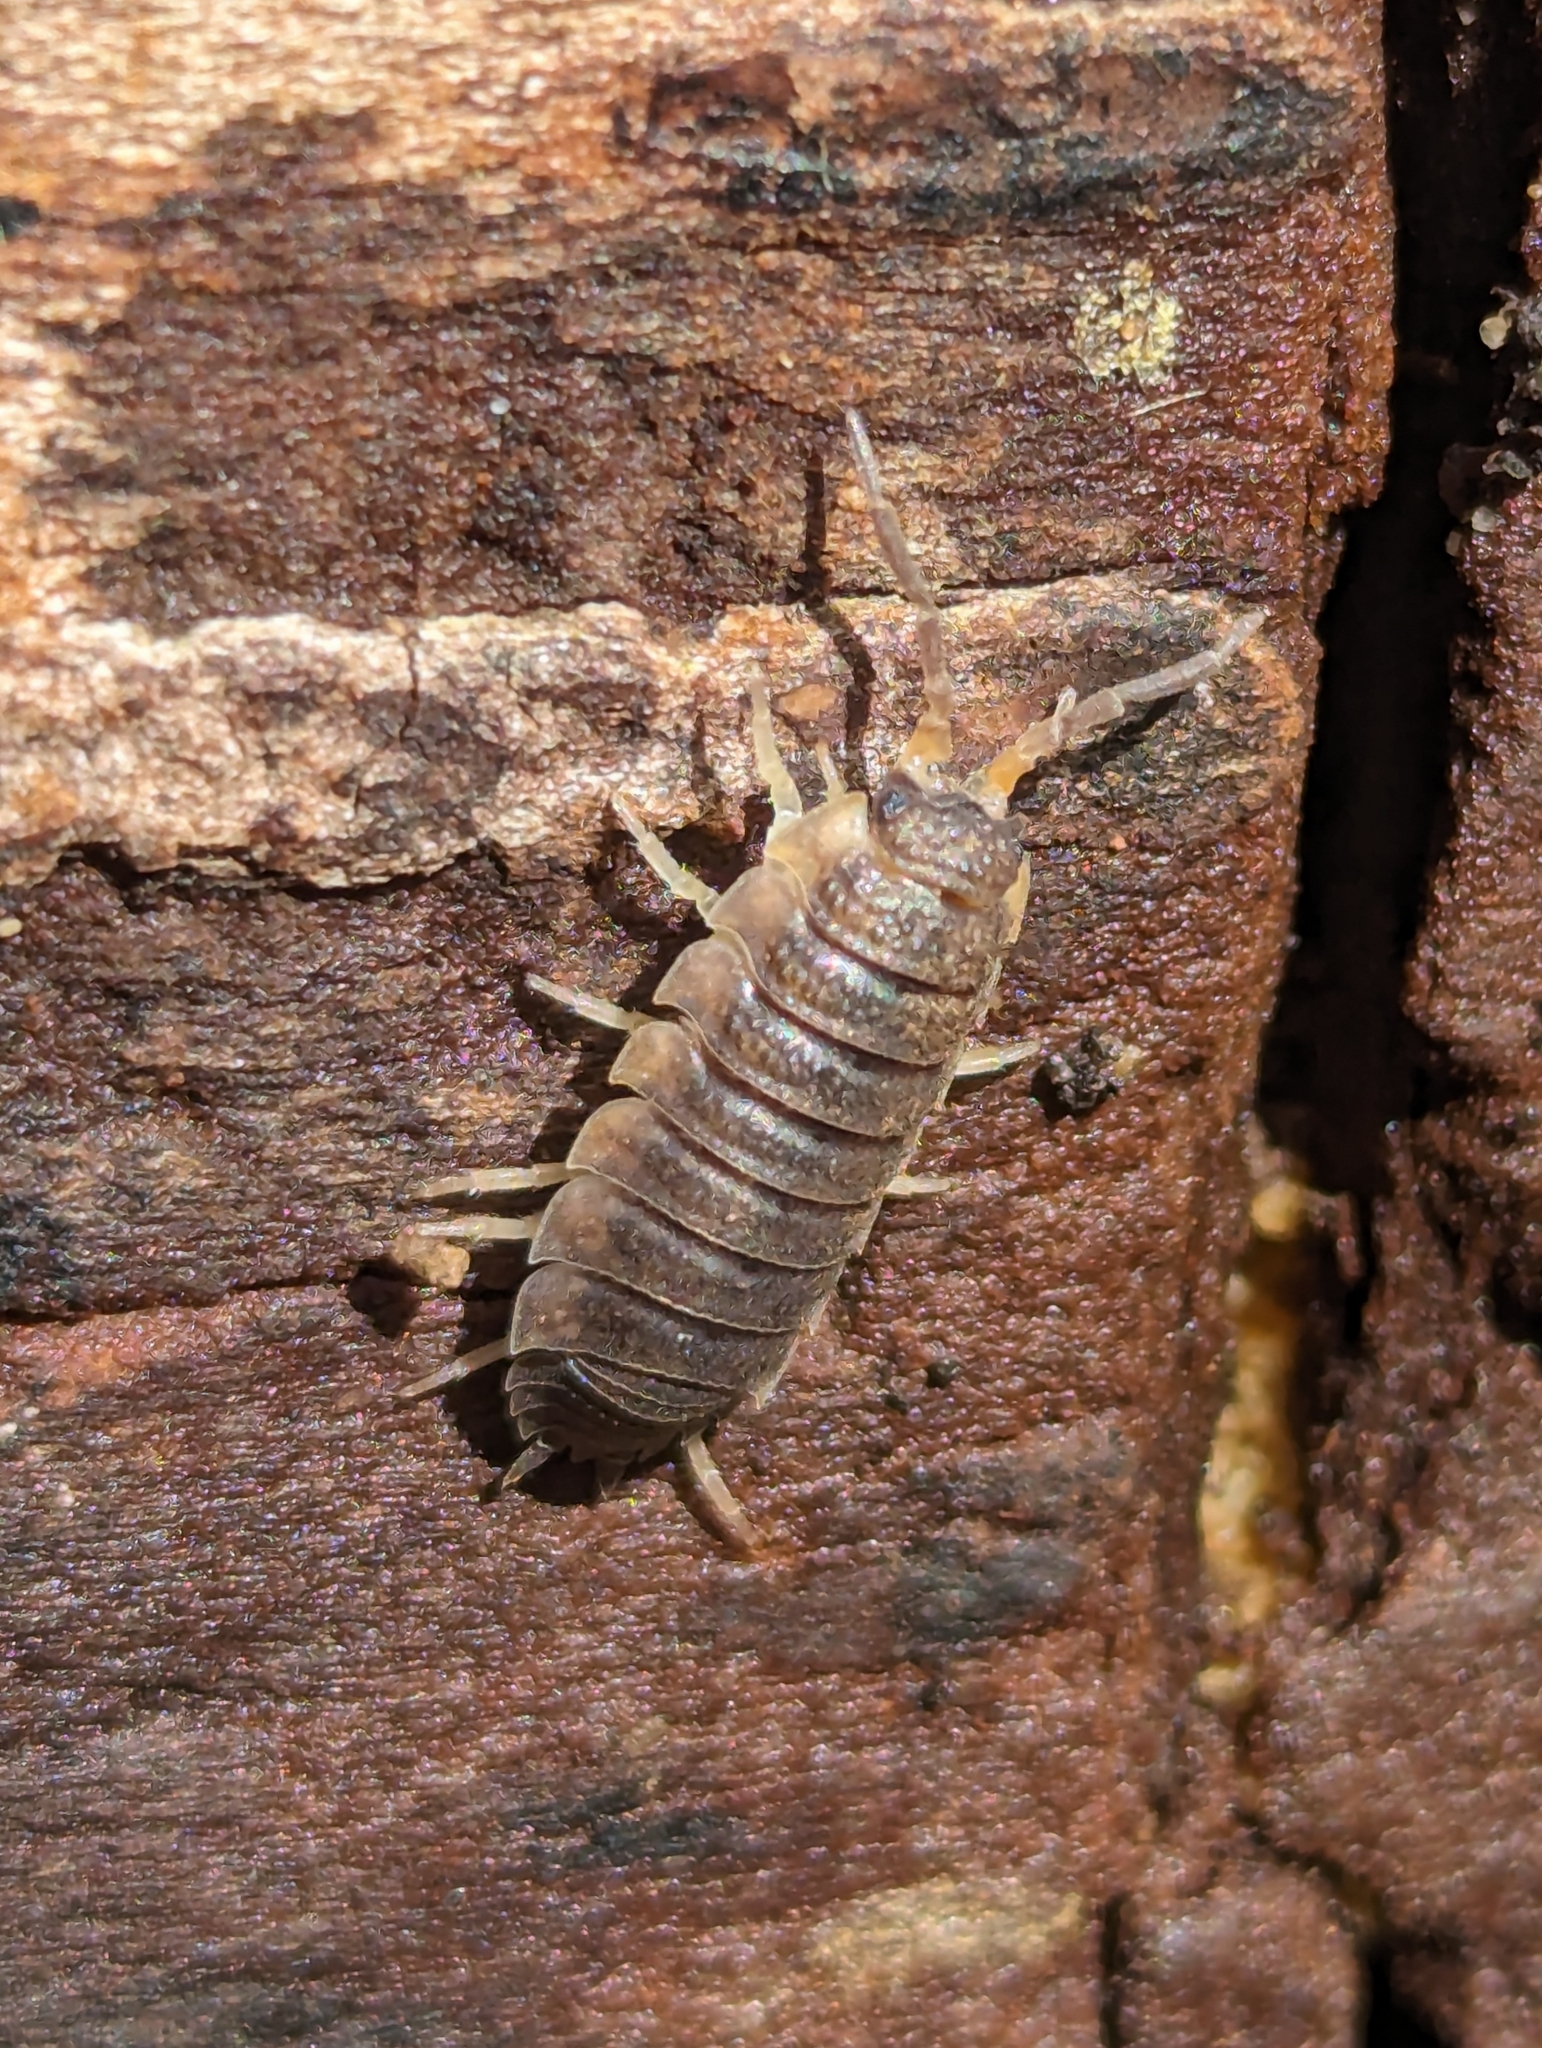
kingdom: Animalia
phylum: Arthropoda
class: Malacostraca
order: Isopoda
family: Porcellionidae
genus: Porcellio
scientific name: Porcellio scaber
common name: Common rough woodlouse
